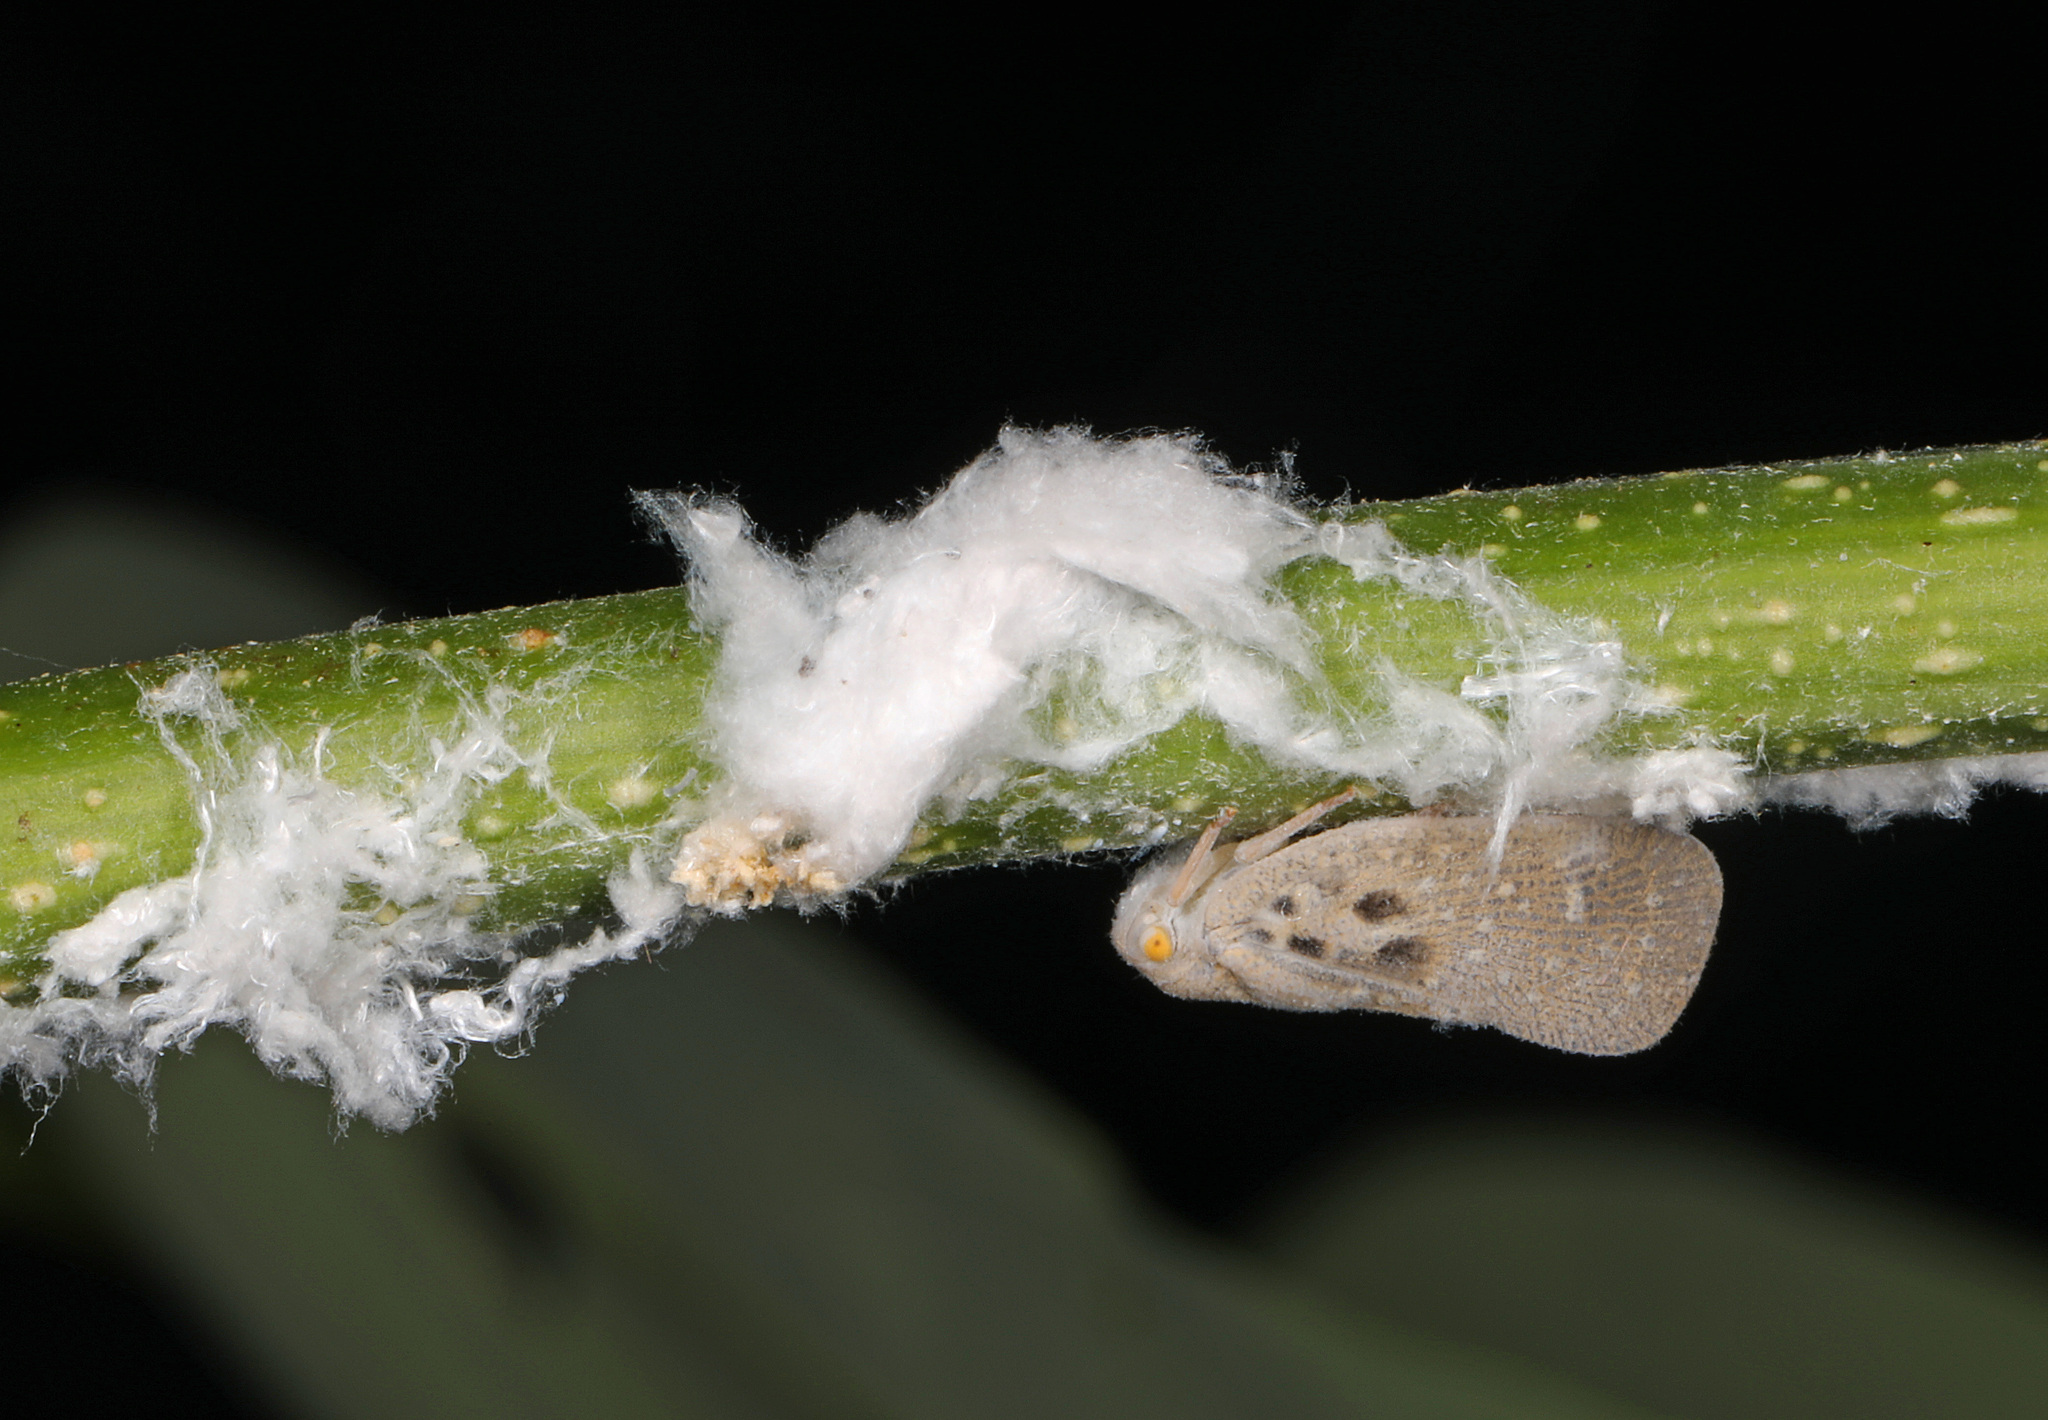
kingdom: Animalia
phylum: Arthropoda
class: Insecta
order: Hemiptera
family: Flatidae
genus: Metcalfa
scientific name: Metcalfa pruinosa
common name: Citrus flatid planthopper
